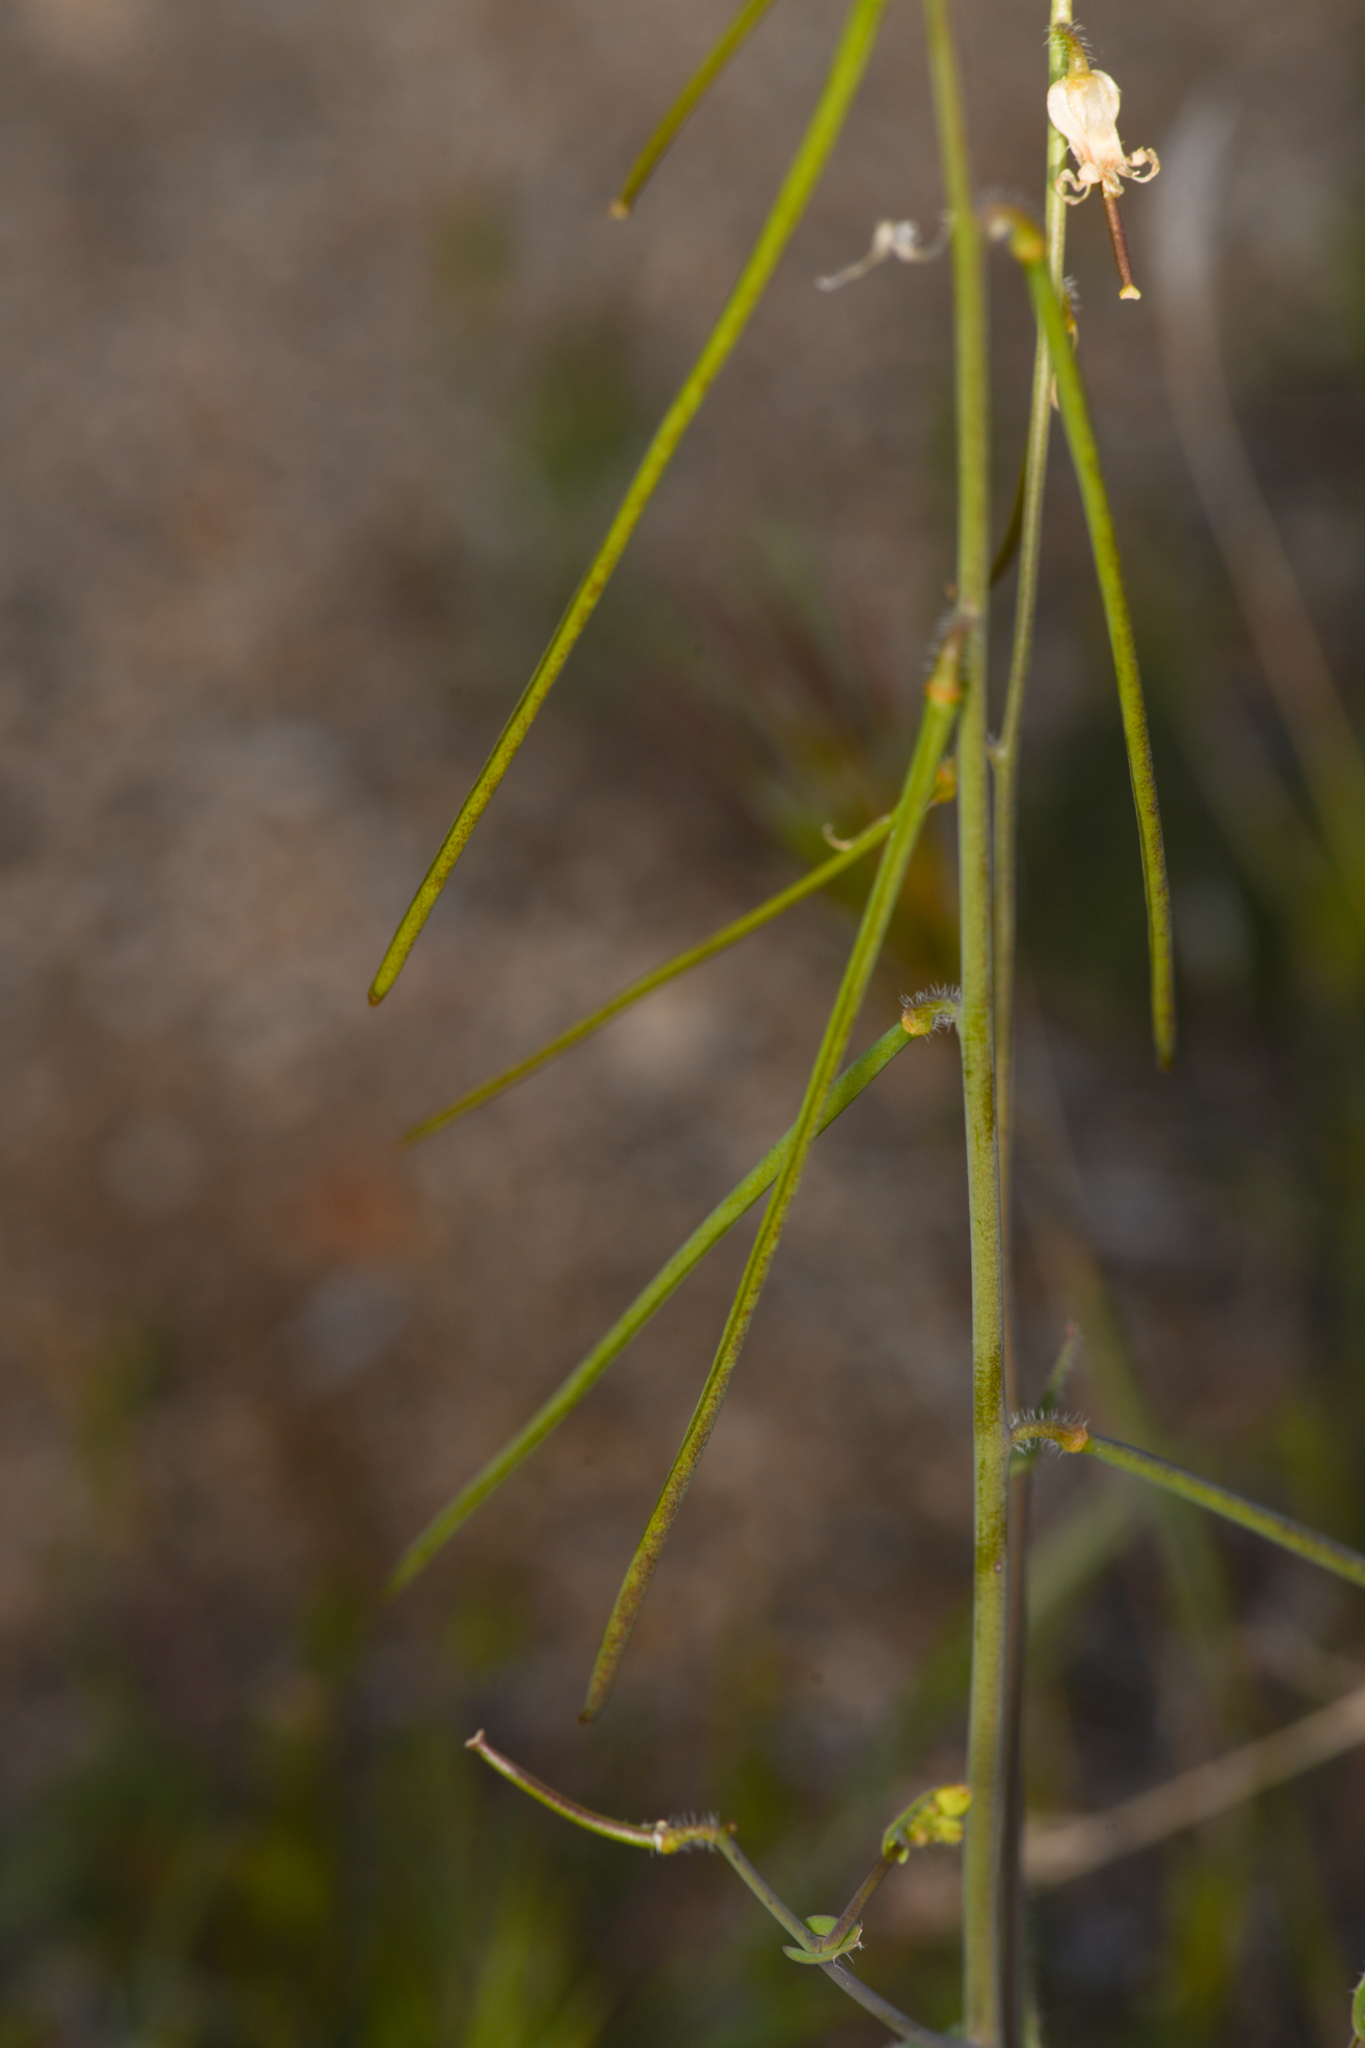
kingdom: Plantae
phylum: Tracheophyta
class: Magnoliopsida
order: Brassicales
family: Brassicaceae
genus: Streptanthus
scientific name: Streptanthus simulans
